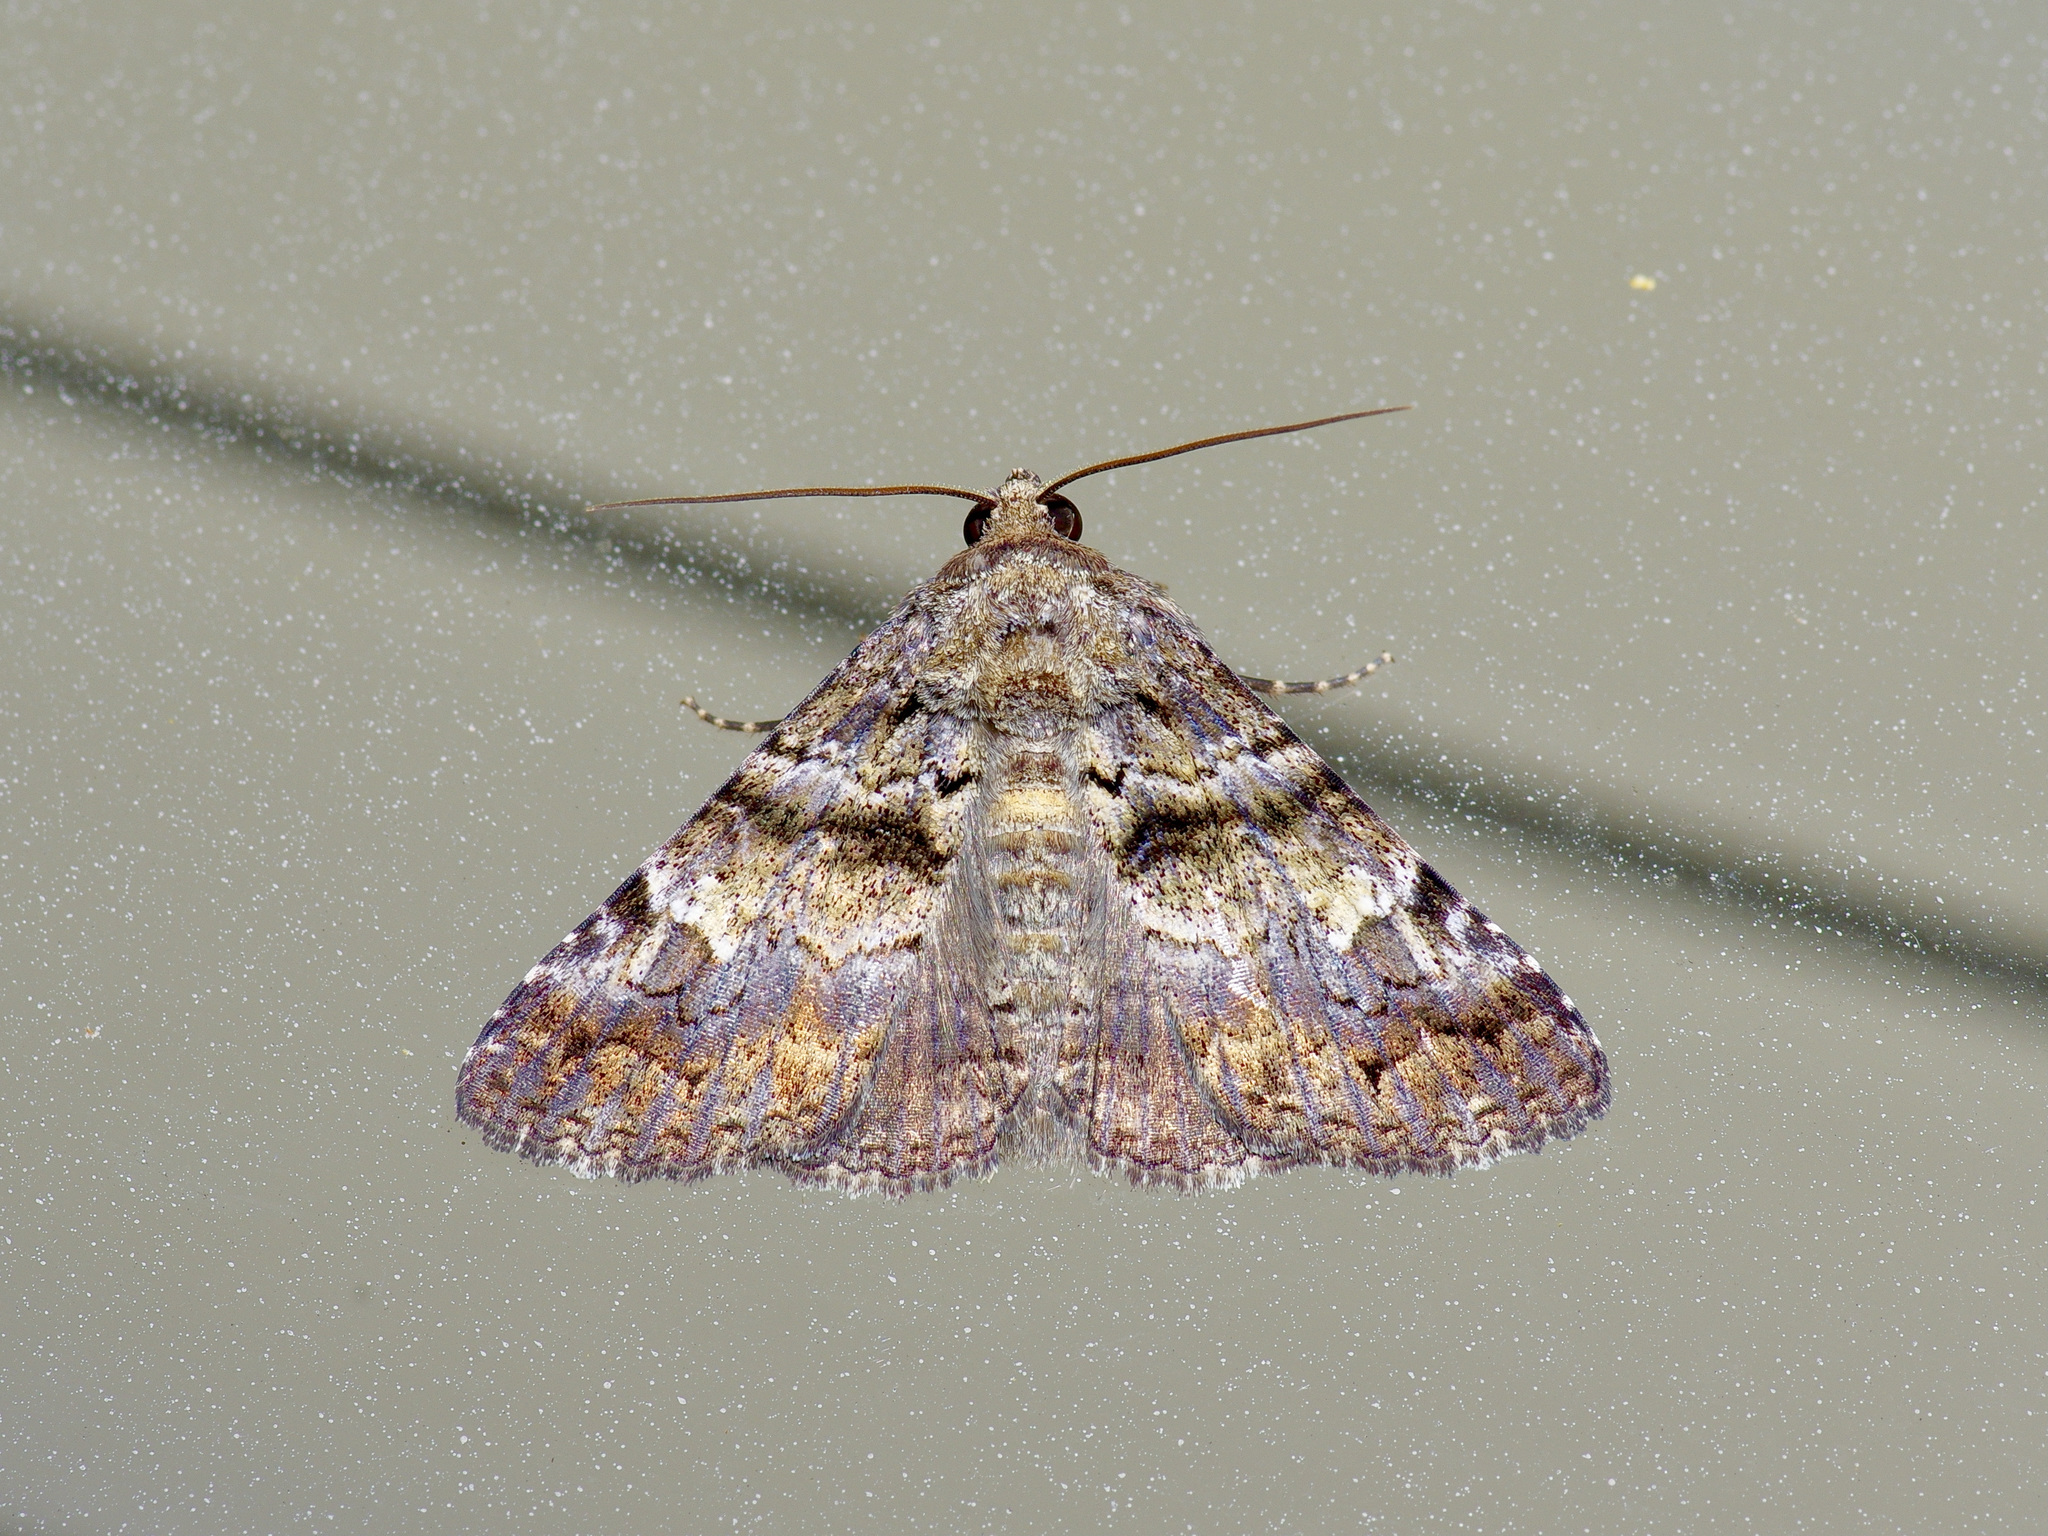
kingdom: Animalia
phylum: Arthropoda
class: Insecta
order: Lepidoptera
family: Erebidae
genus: Metria
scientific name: Metria amella
